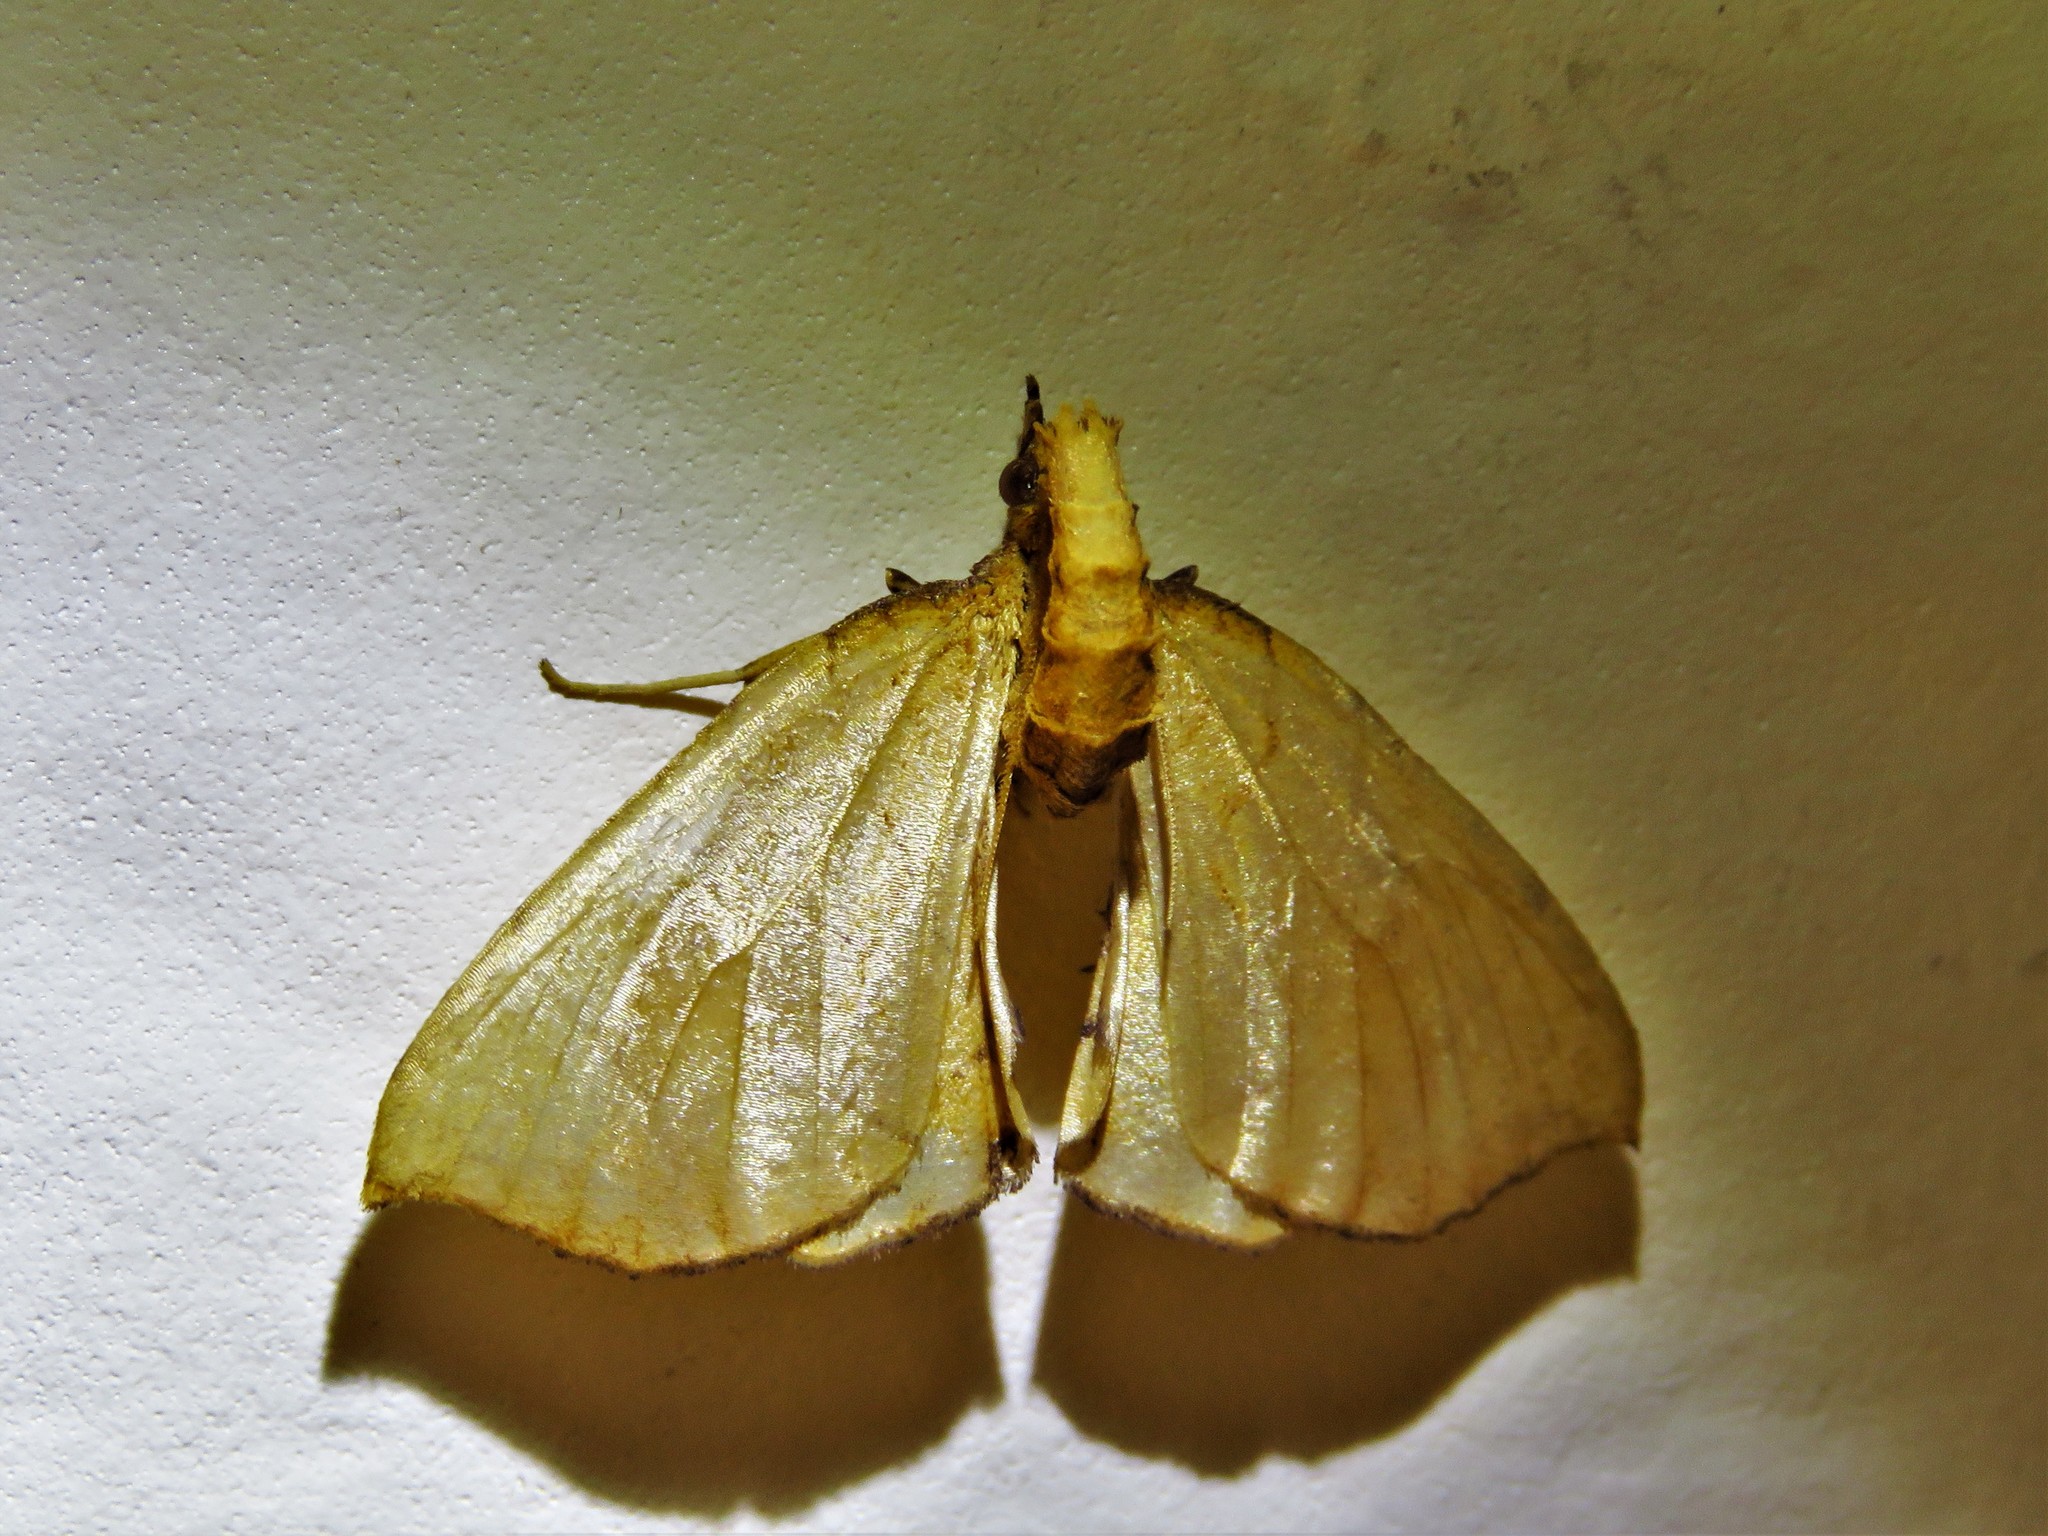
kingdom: Animalia
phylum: Arthropoda
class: Insecta
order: Lepidoptera
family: Geometridae
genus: Eulithis
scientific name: Eulithis
